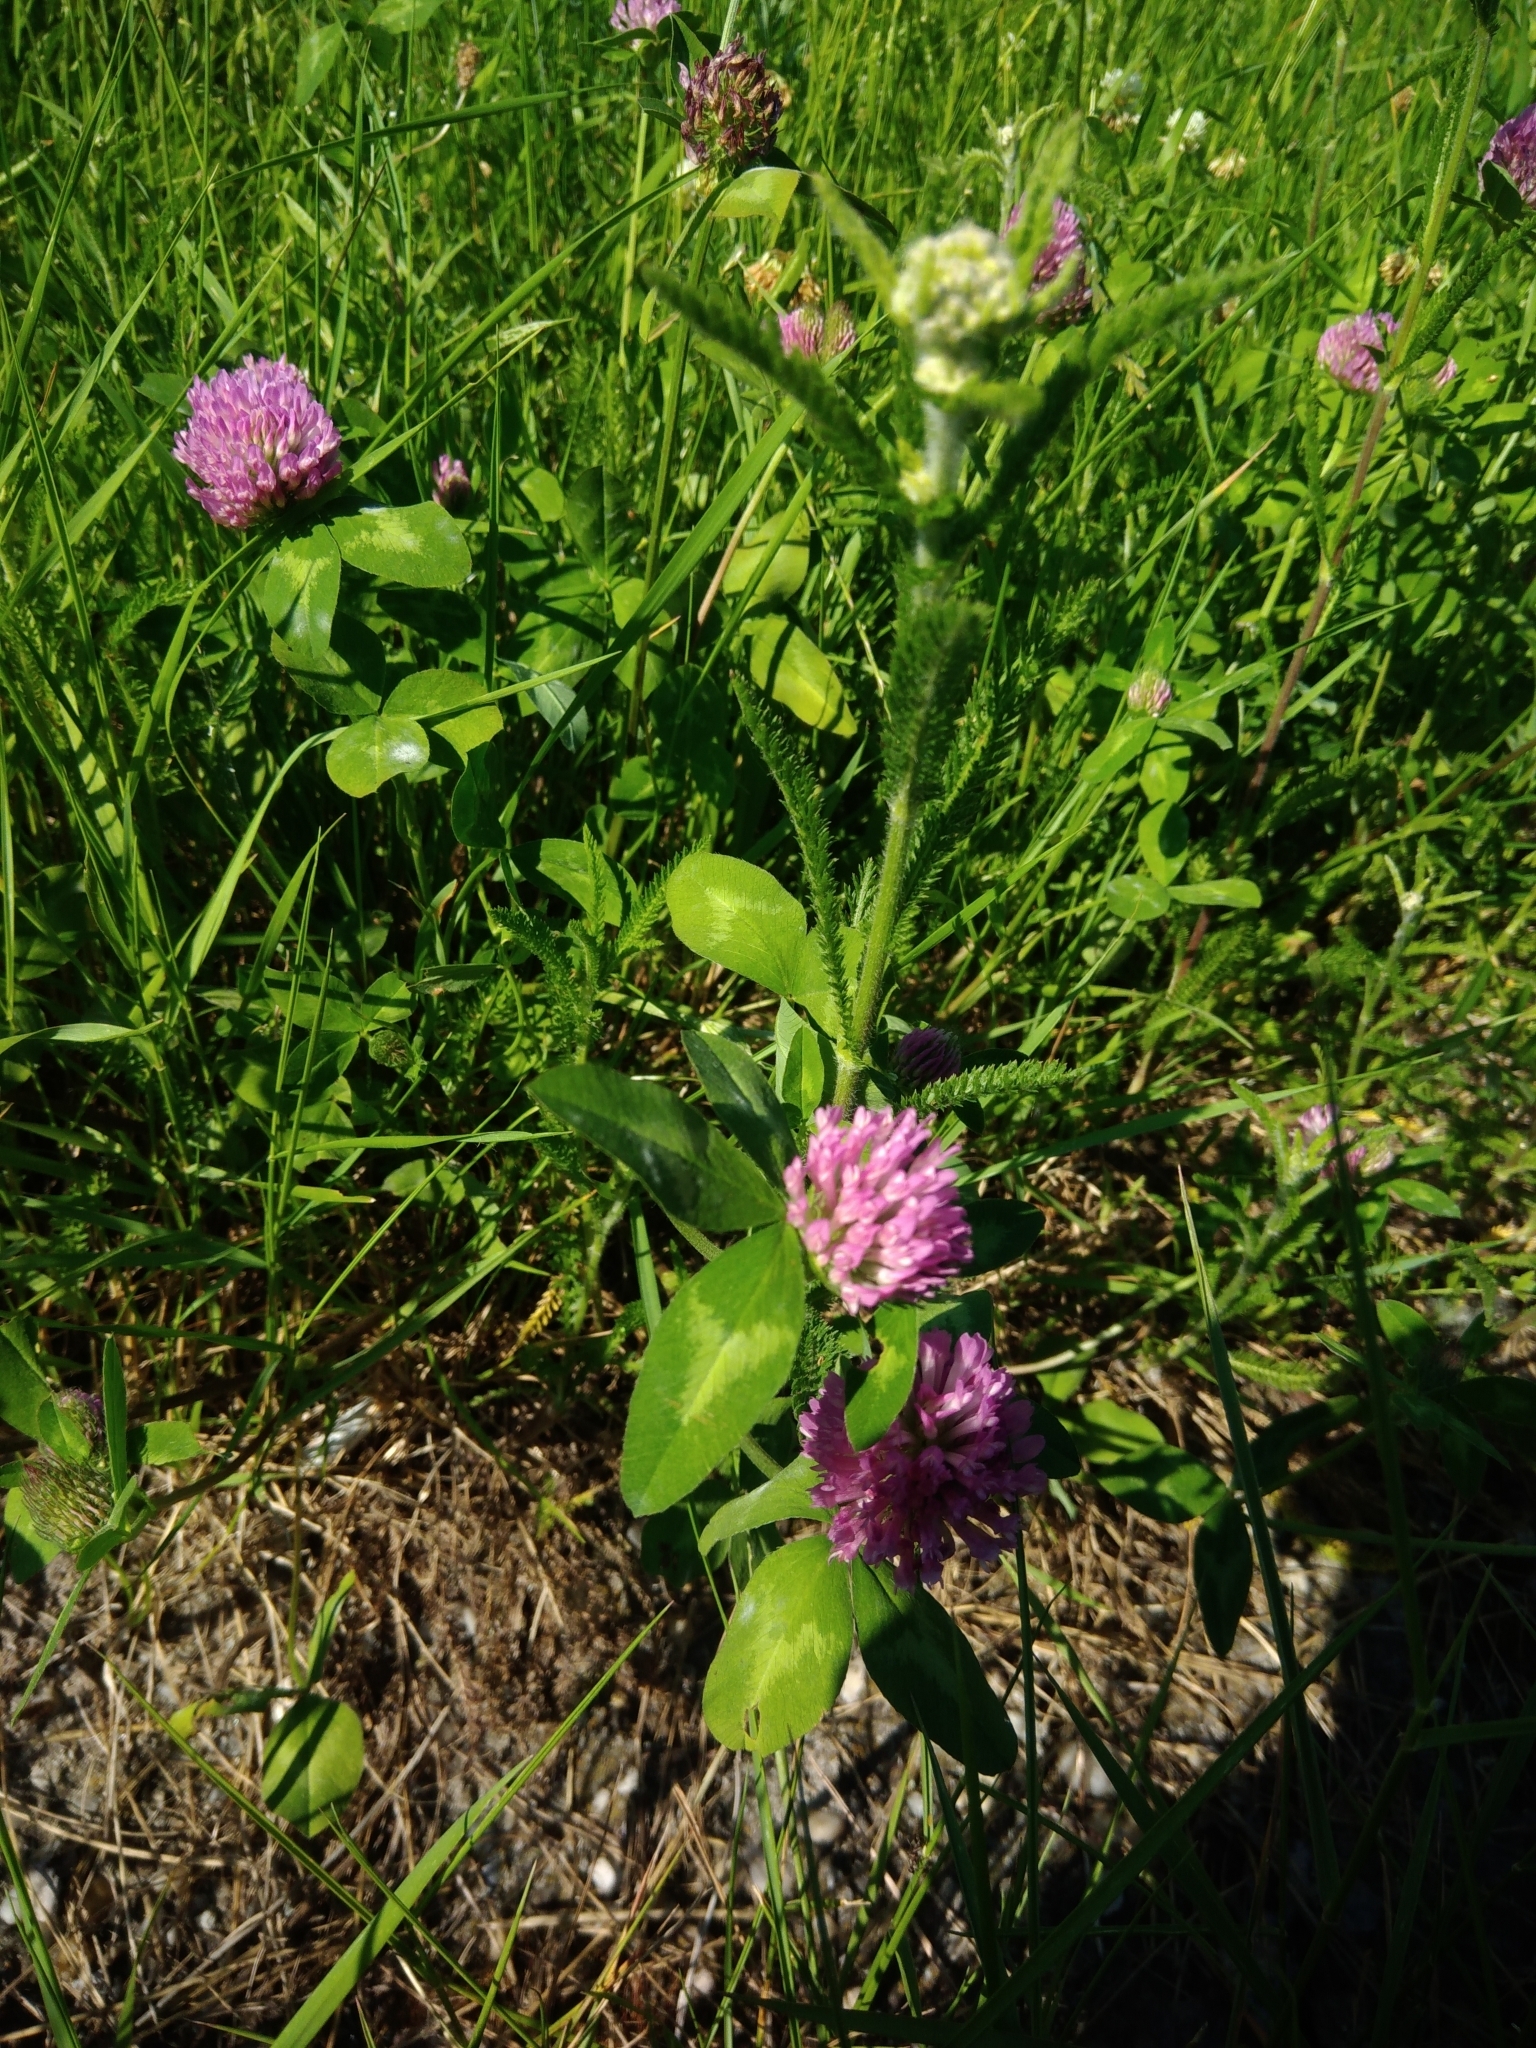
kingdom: Plantae
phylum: Tracheophyta
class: Magnoliopsida
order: Fabales
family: Fabaceae
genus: Trifolium
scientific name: Trifolium pratense
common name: Red clover
